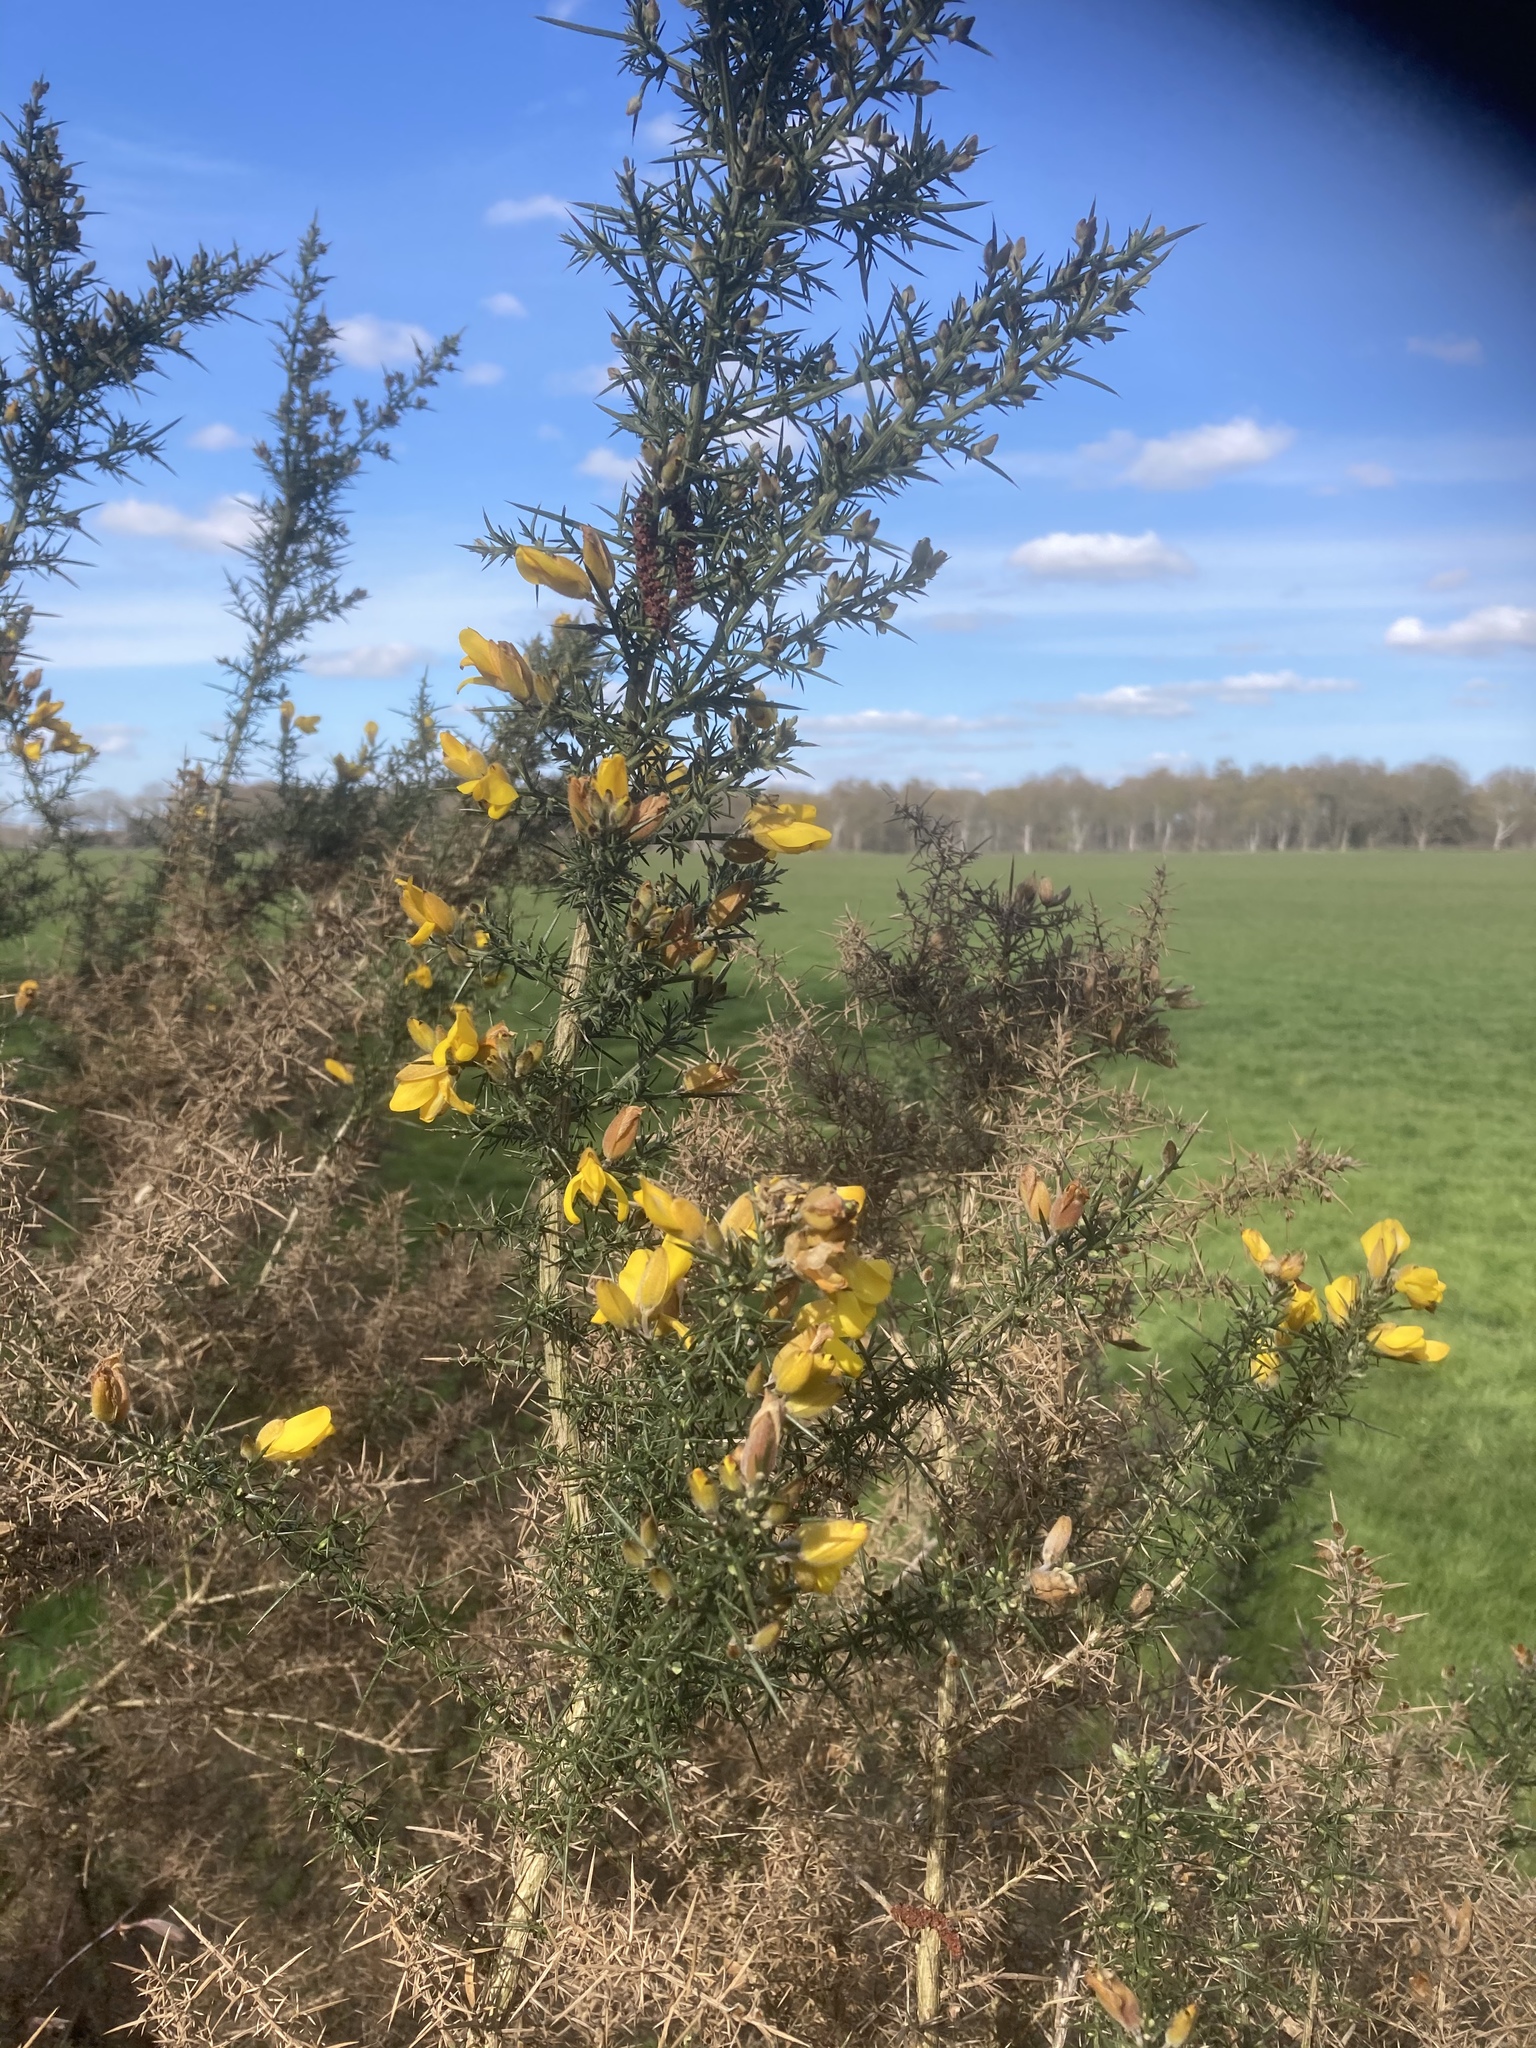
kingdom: Plantae
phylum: Tracheophyta
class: Magnoliopsida
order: Fabales
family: Fabaceae
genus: Ulex
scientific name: Ulex europaeus
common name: Common gorse
